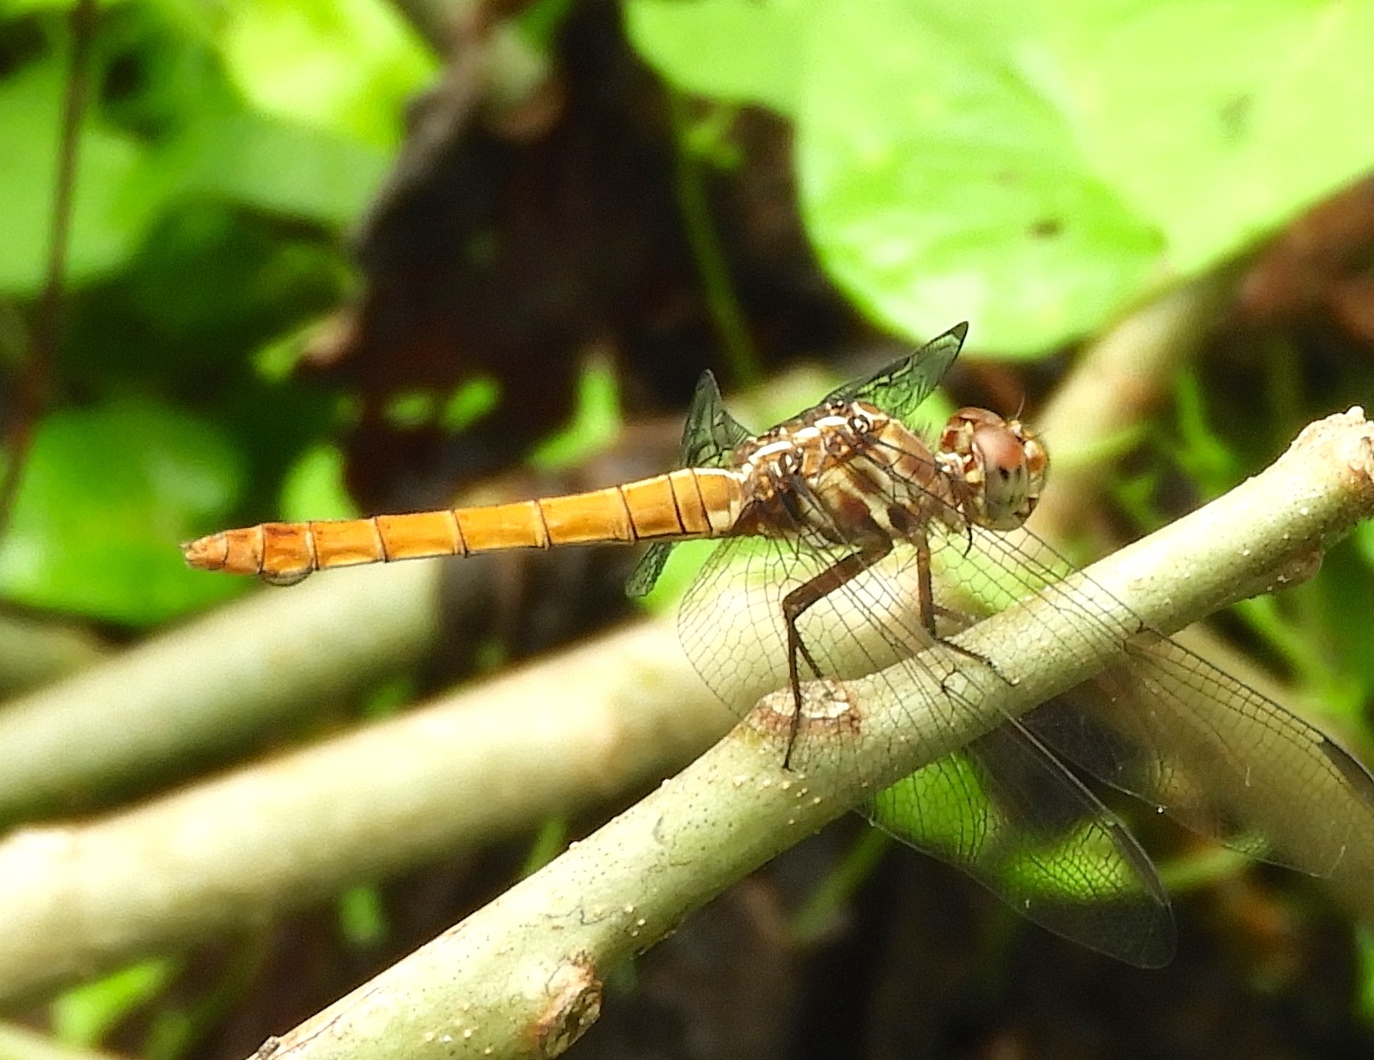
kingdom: Animalia
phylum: Arthropoda
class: Insecta
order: Odonata
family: Libellulidae
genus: Orthemis
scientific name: Orthemis ferruginea
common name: Roseate skimmer
